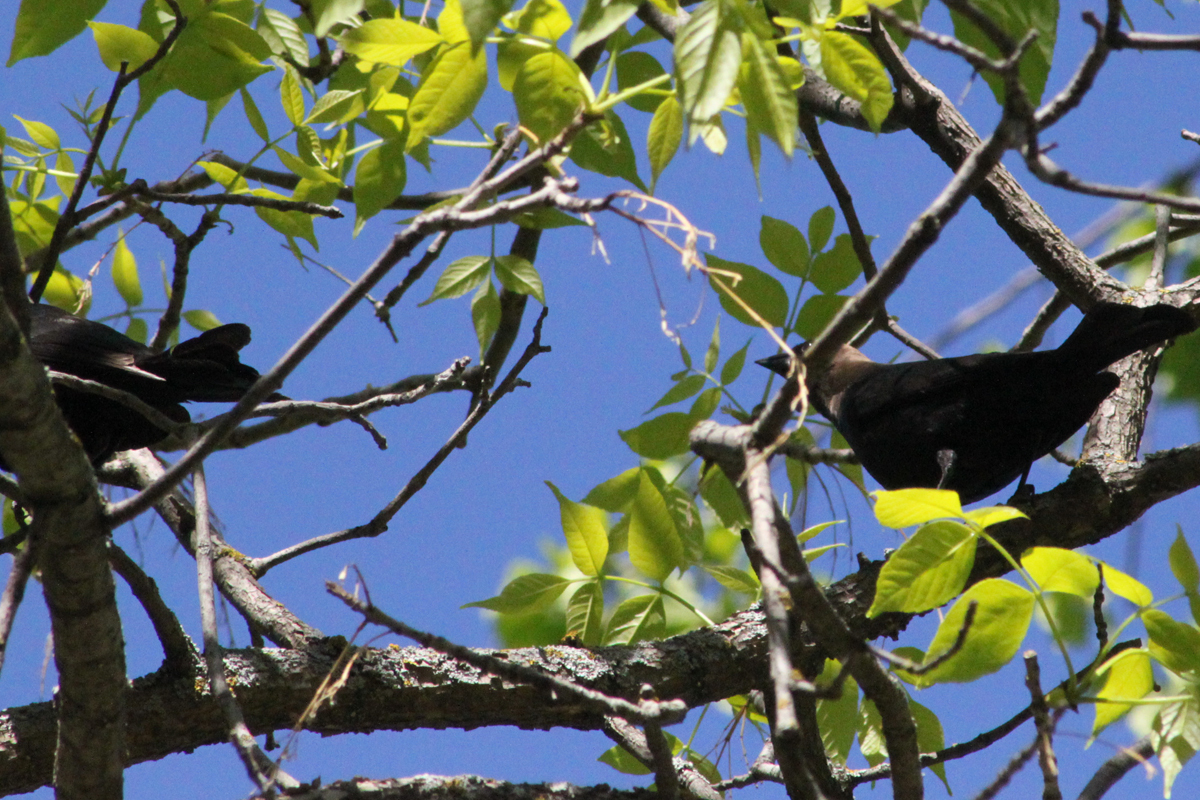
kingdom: Animalia
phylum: Chordata
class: Aves
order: Passeriformes
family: Icteridae
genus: Molothrus
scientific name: Molothrus ater
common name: Brown-headed cowbird
